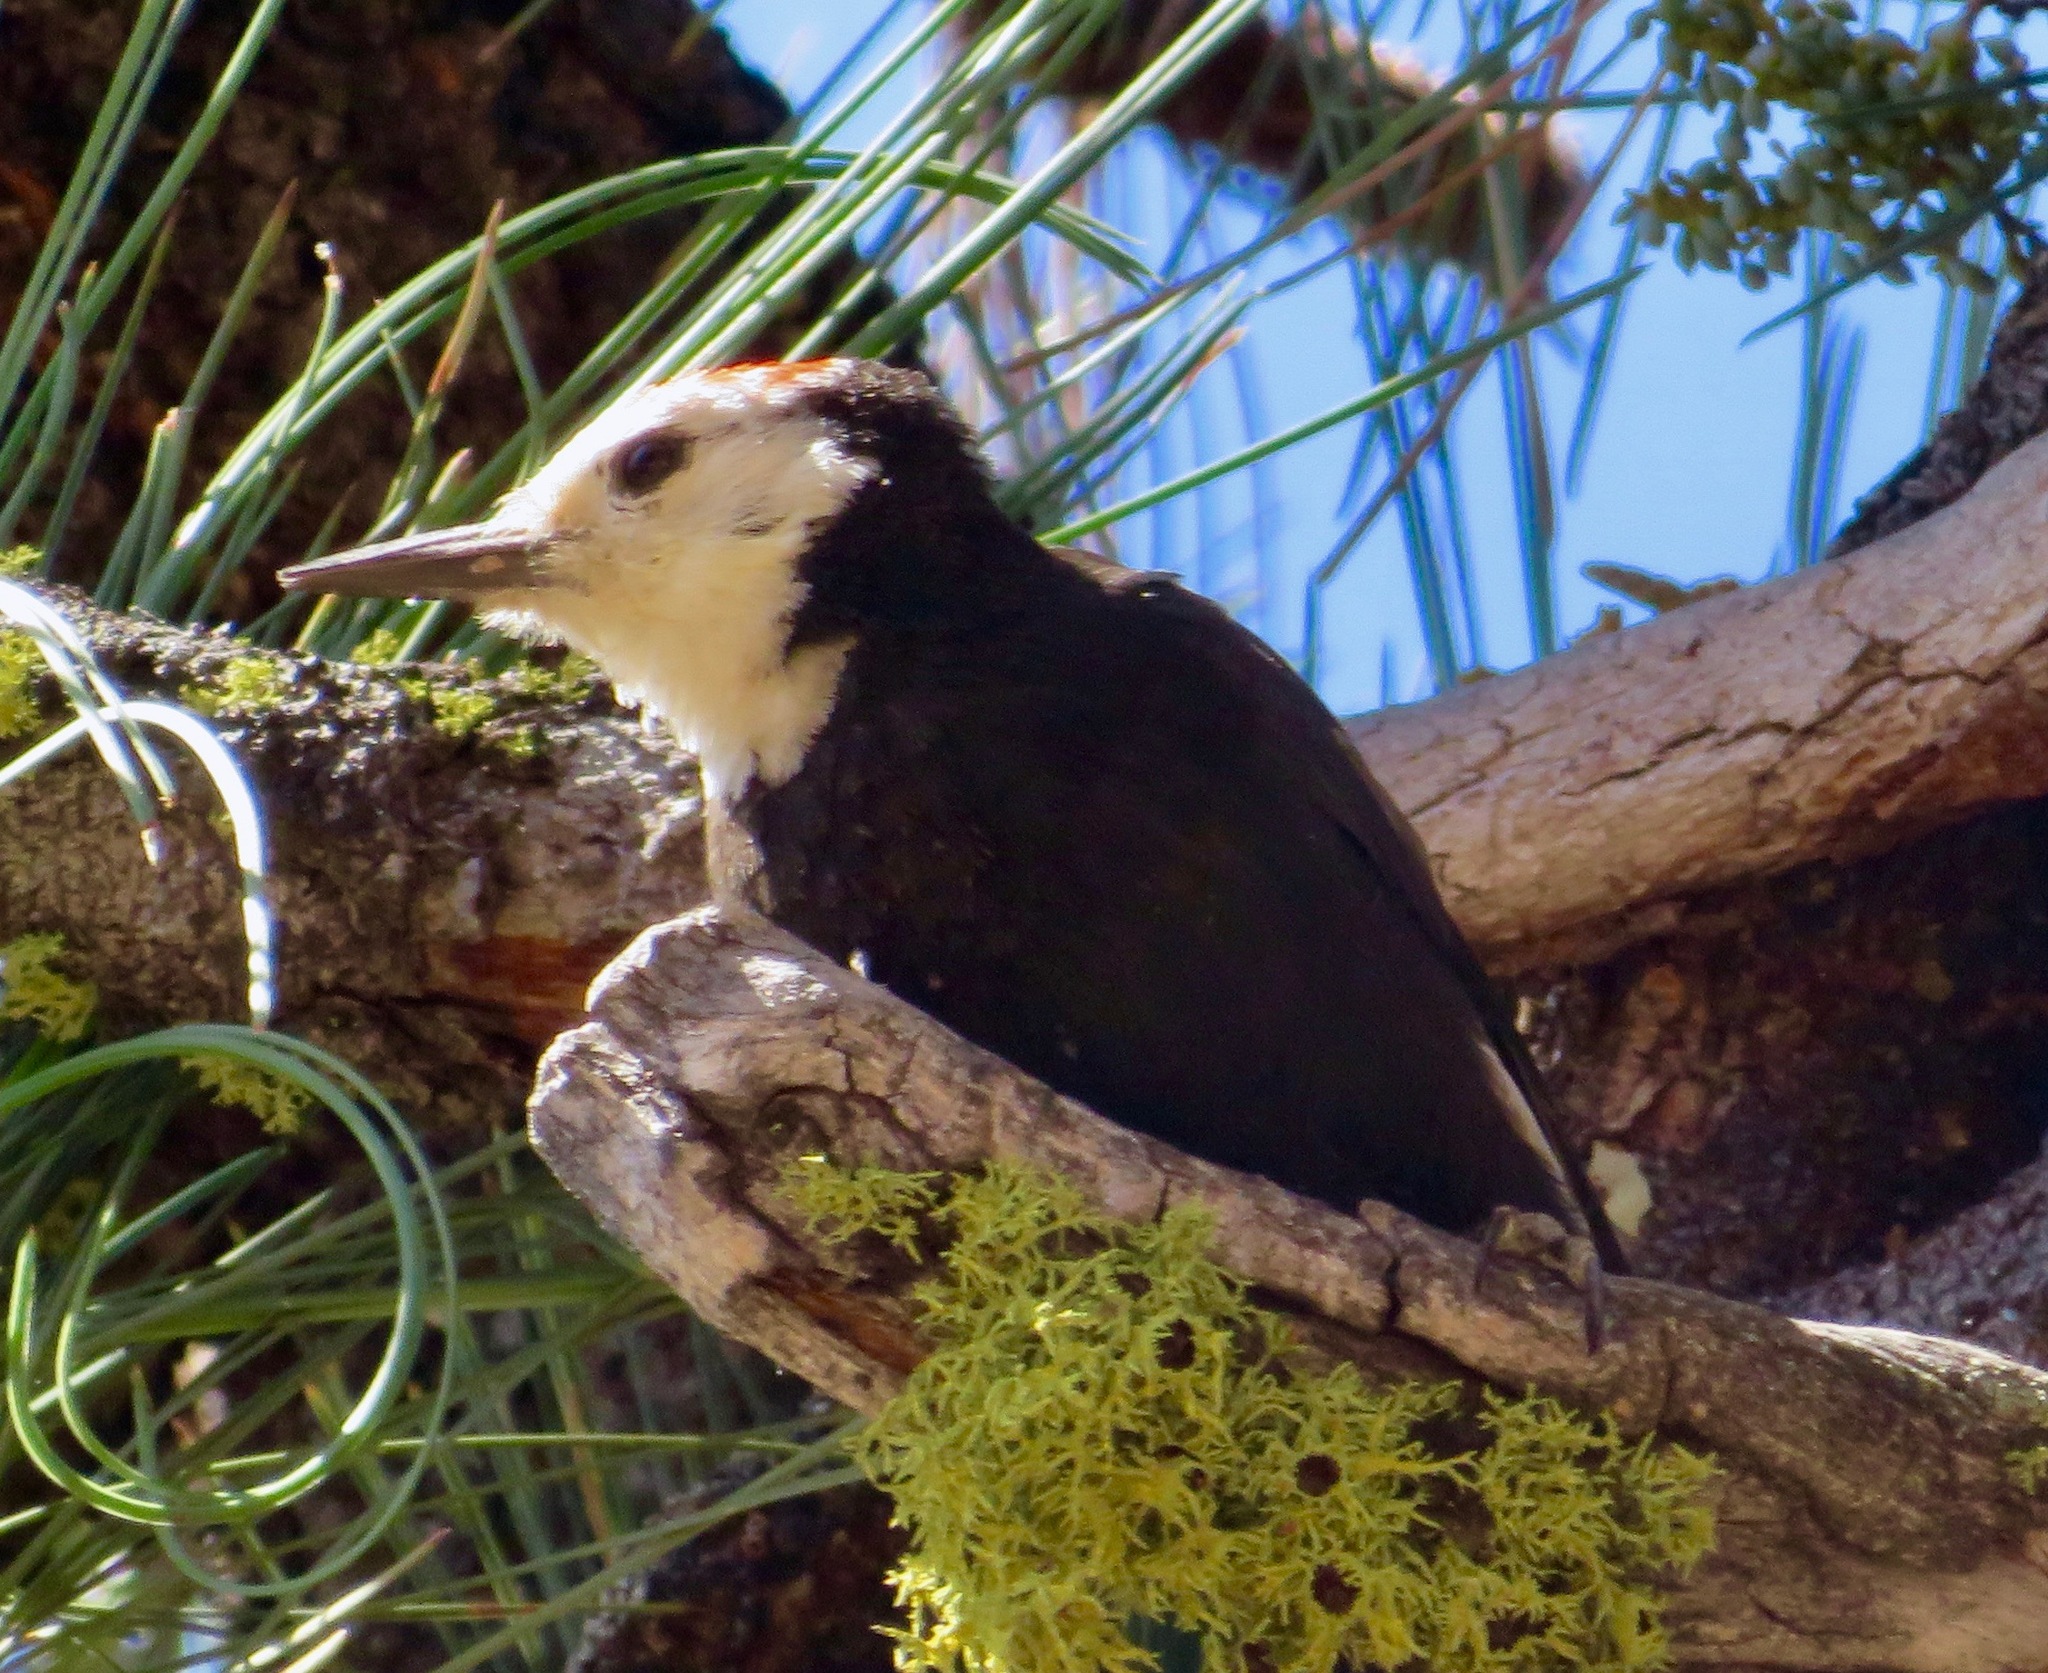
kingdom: Animalia
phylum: Chordata
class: Aves
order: Piciformes
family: Picidae
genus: Leuconotopicus
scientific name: Leuconotopicus albolarvatus
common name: White-headed woodpecker
